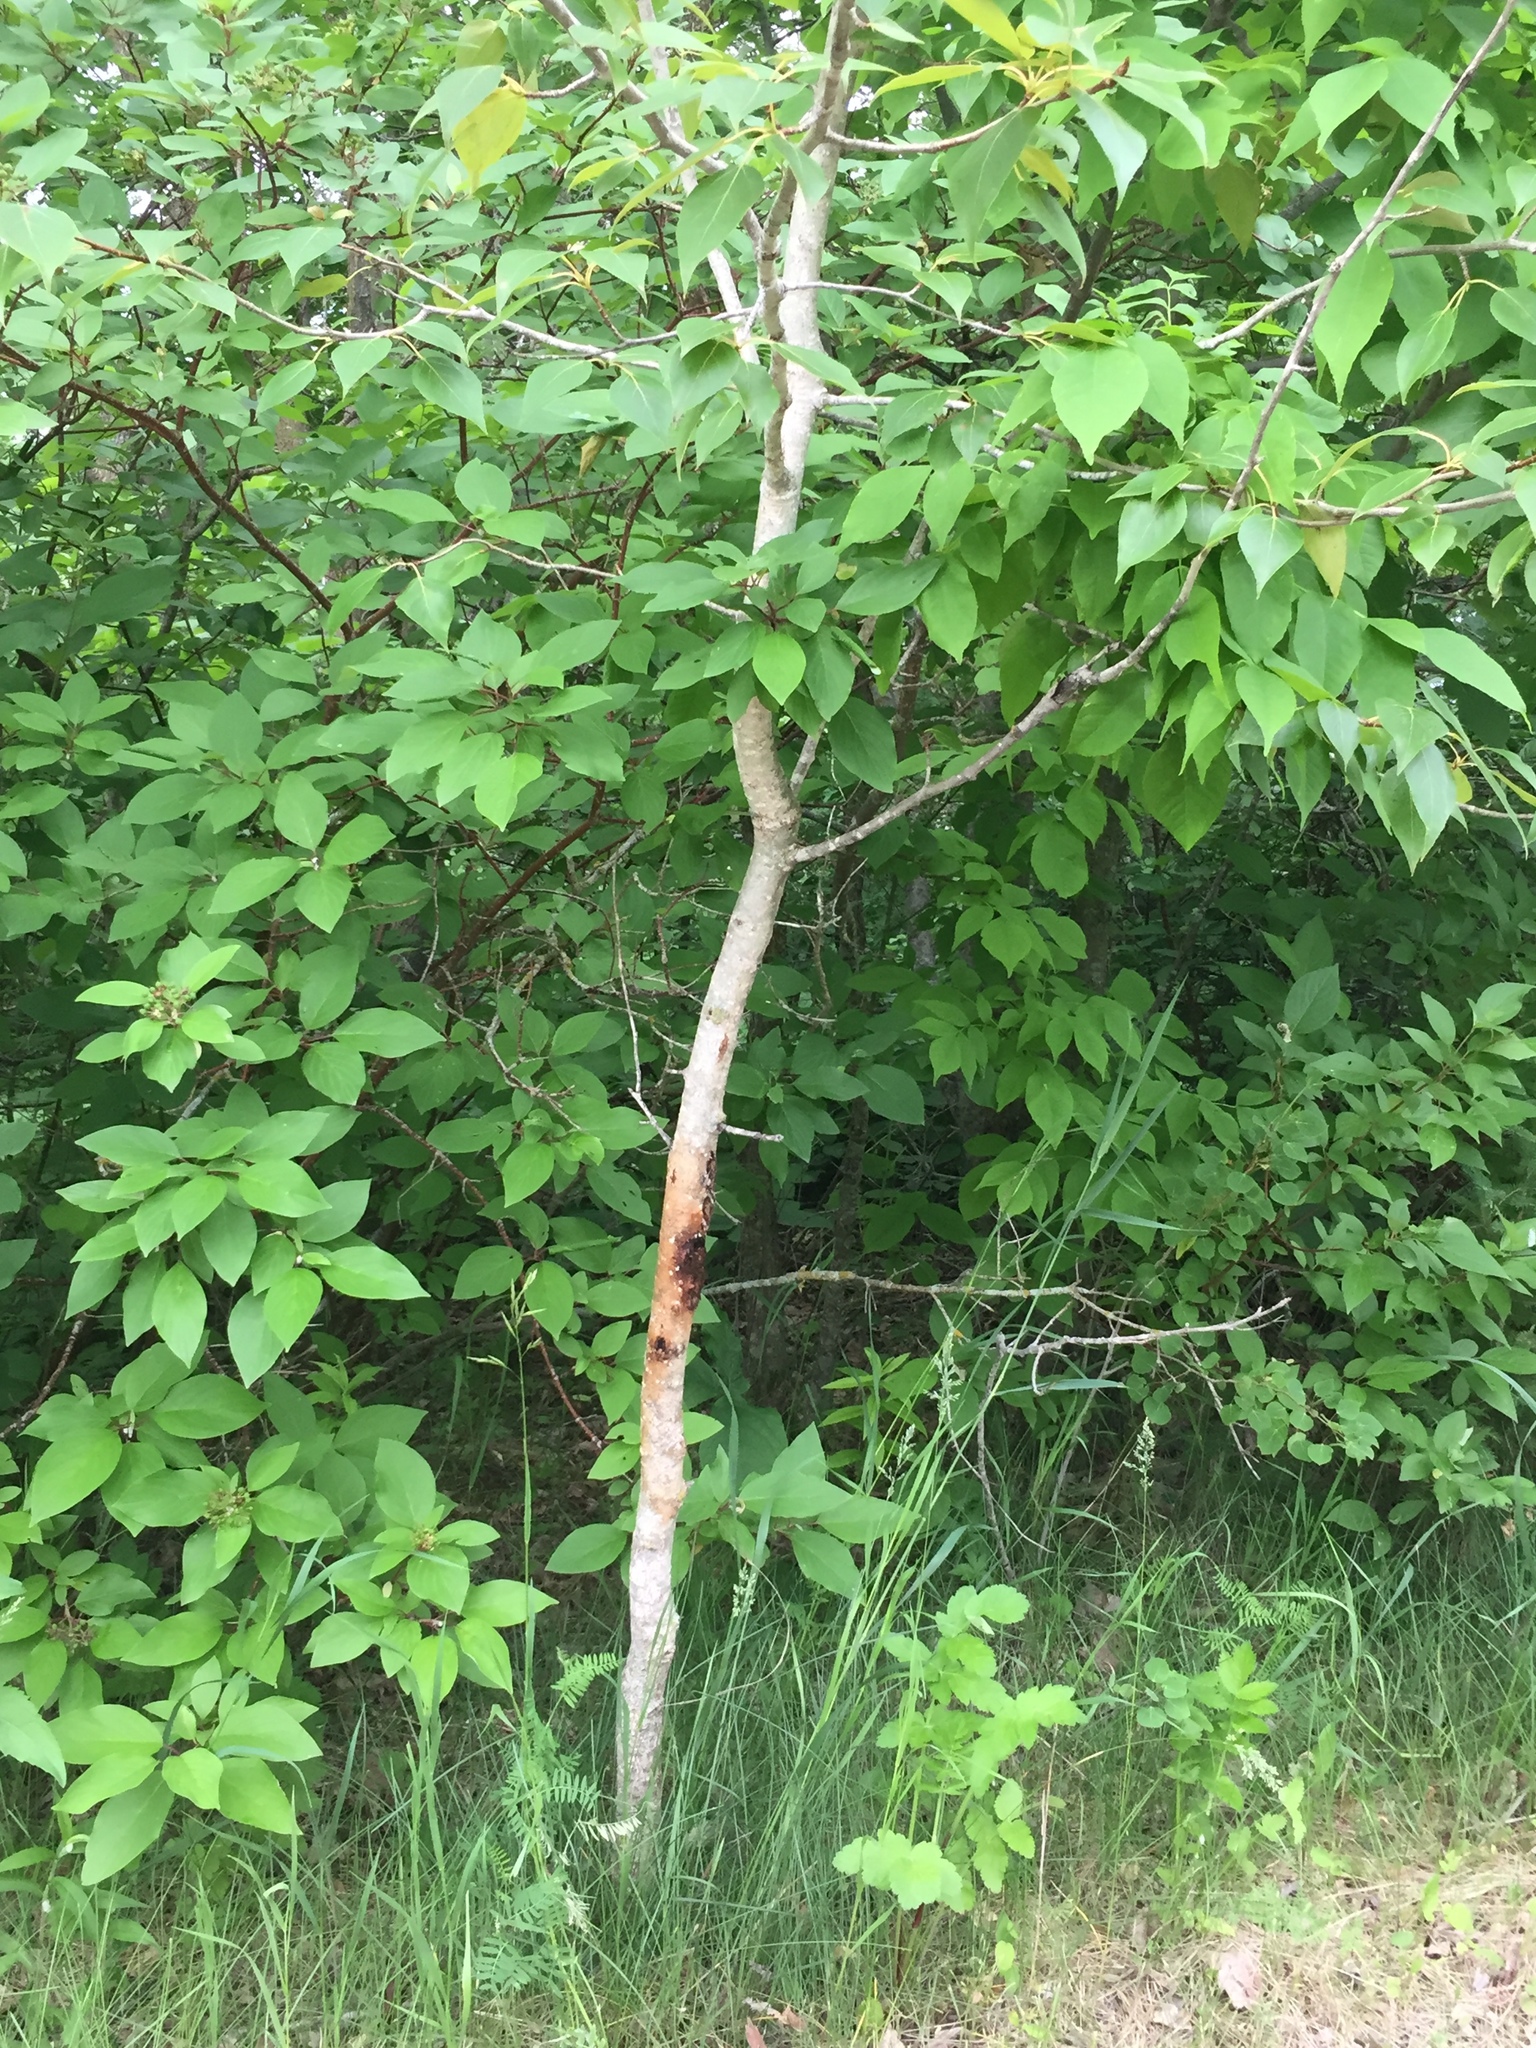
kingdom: Plantae
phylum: Tracheophyta
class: Magnoliopsida
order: Malpighiales
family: Salicaceae
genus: Populus
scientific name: Populus balsamifera
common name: Balsam poplar
